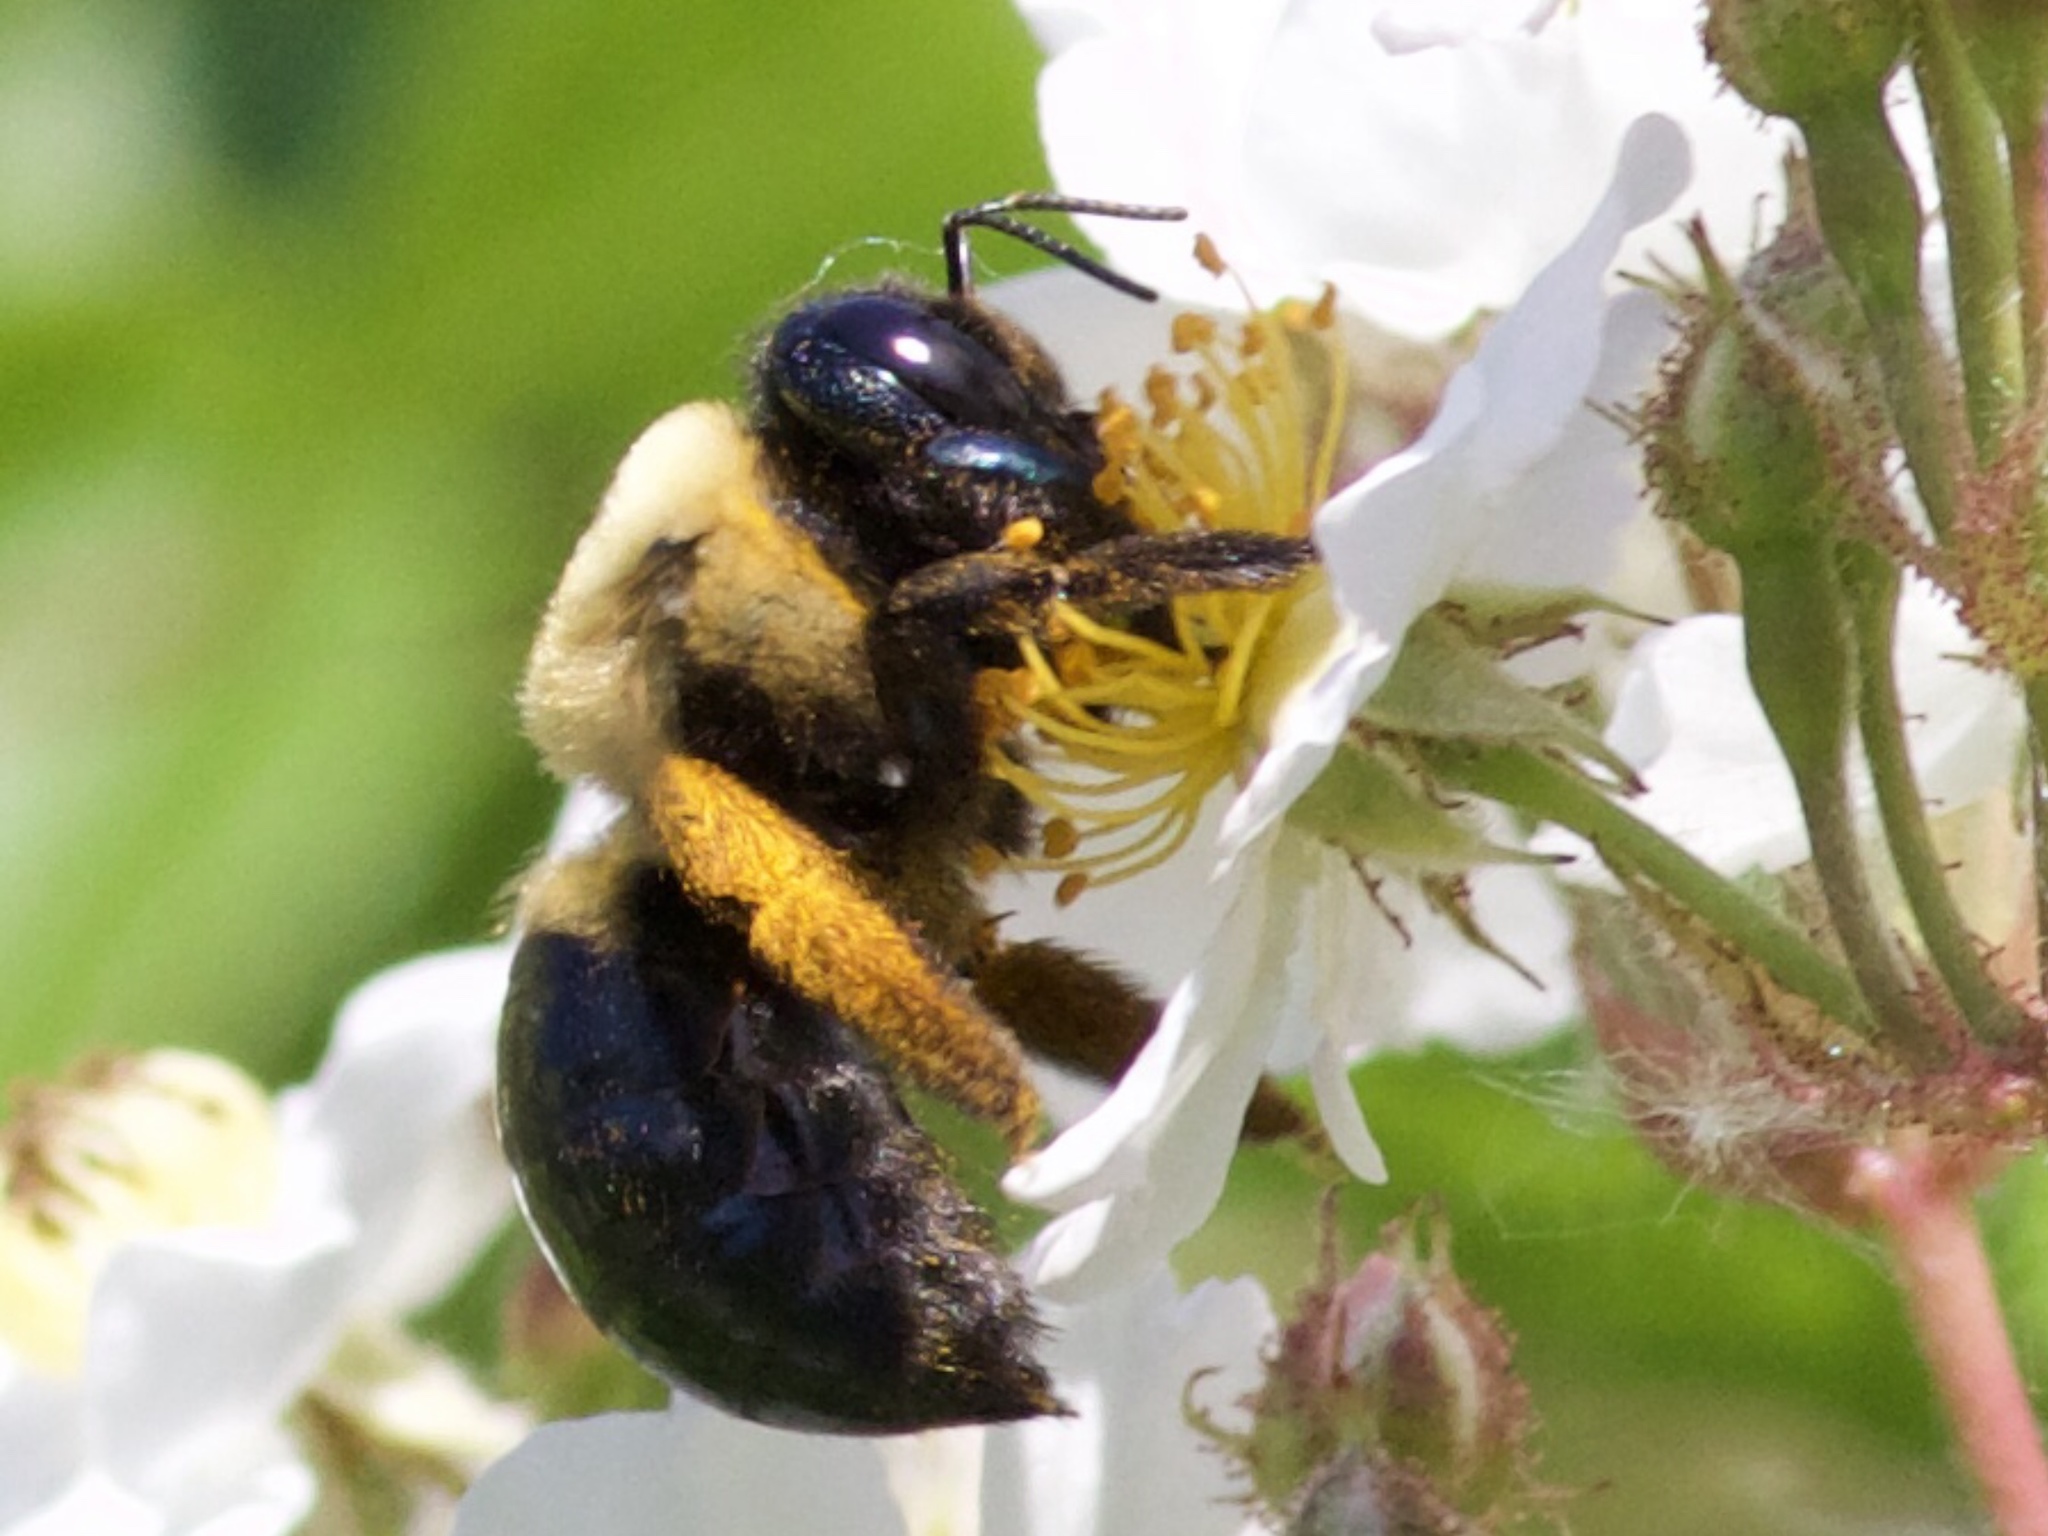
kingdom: Animalia
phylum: Arthropoda
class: Insecta
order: Hymenoptera
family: Apidae
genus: Xylocopa
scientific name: Xylocopa virginica
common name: Carpenter bee
